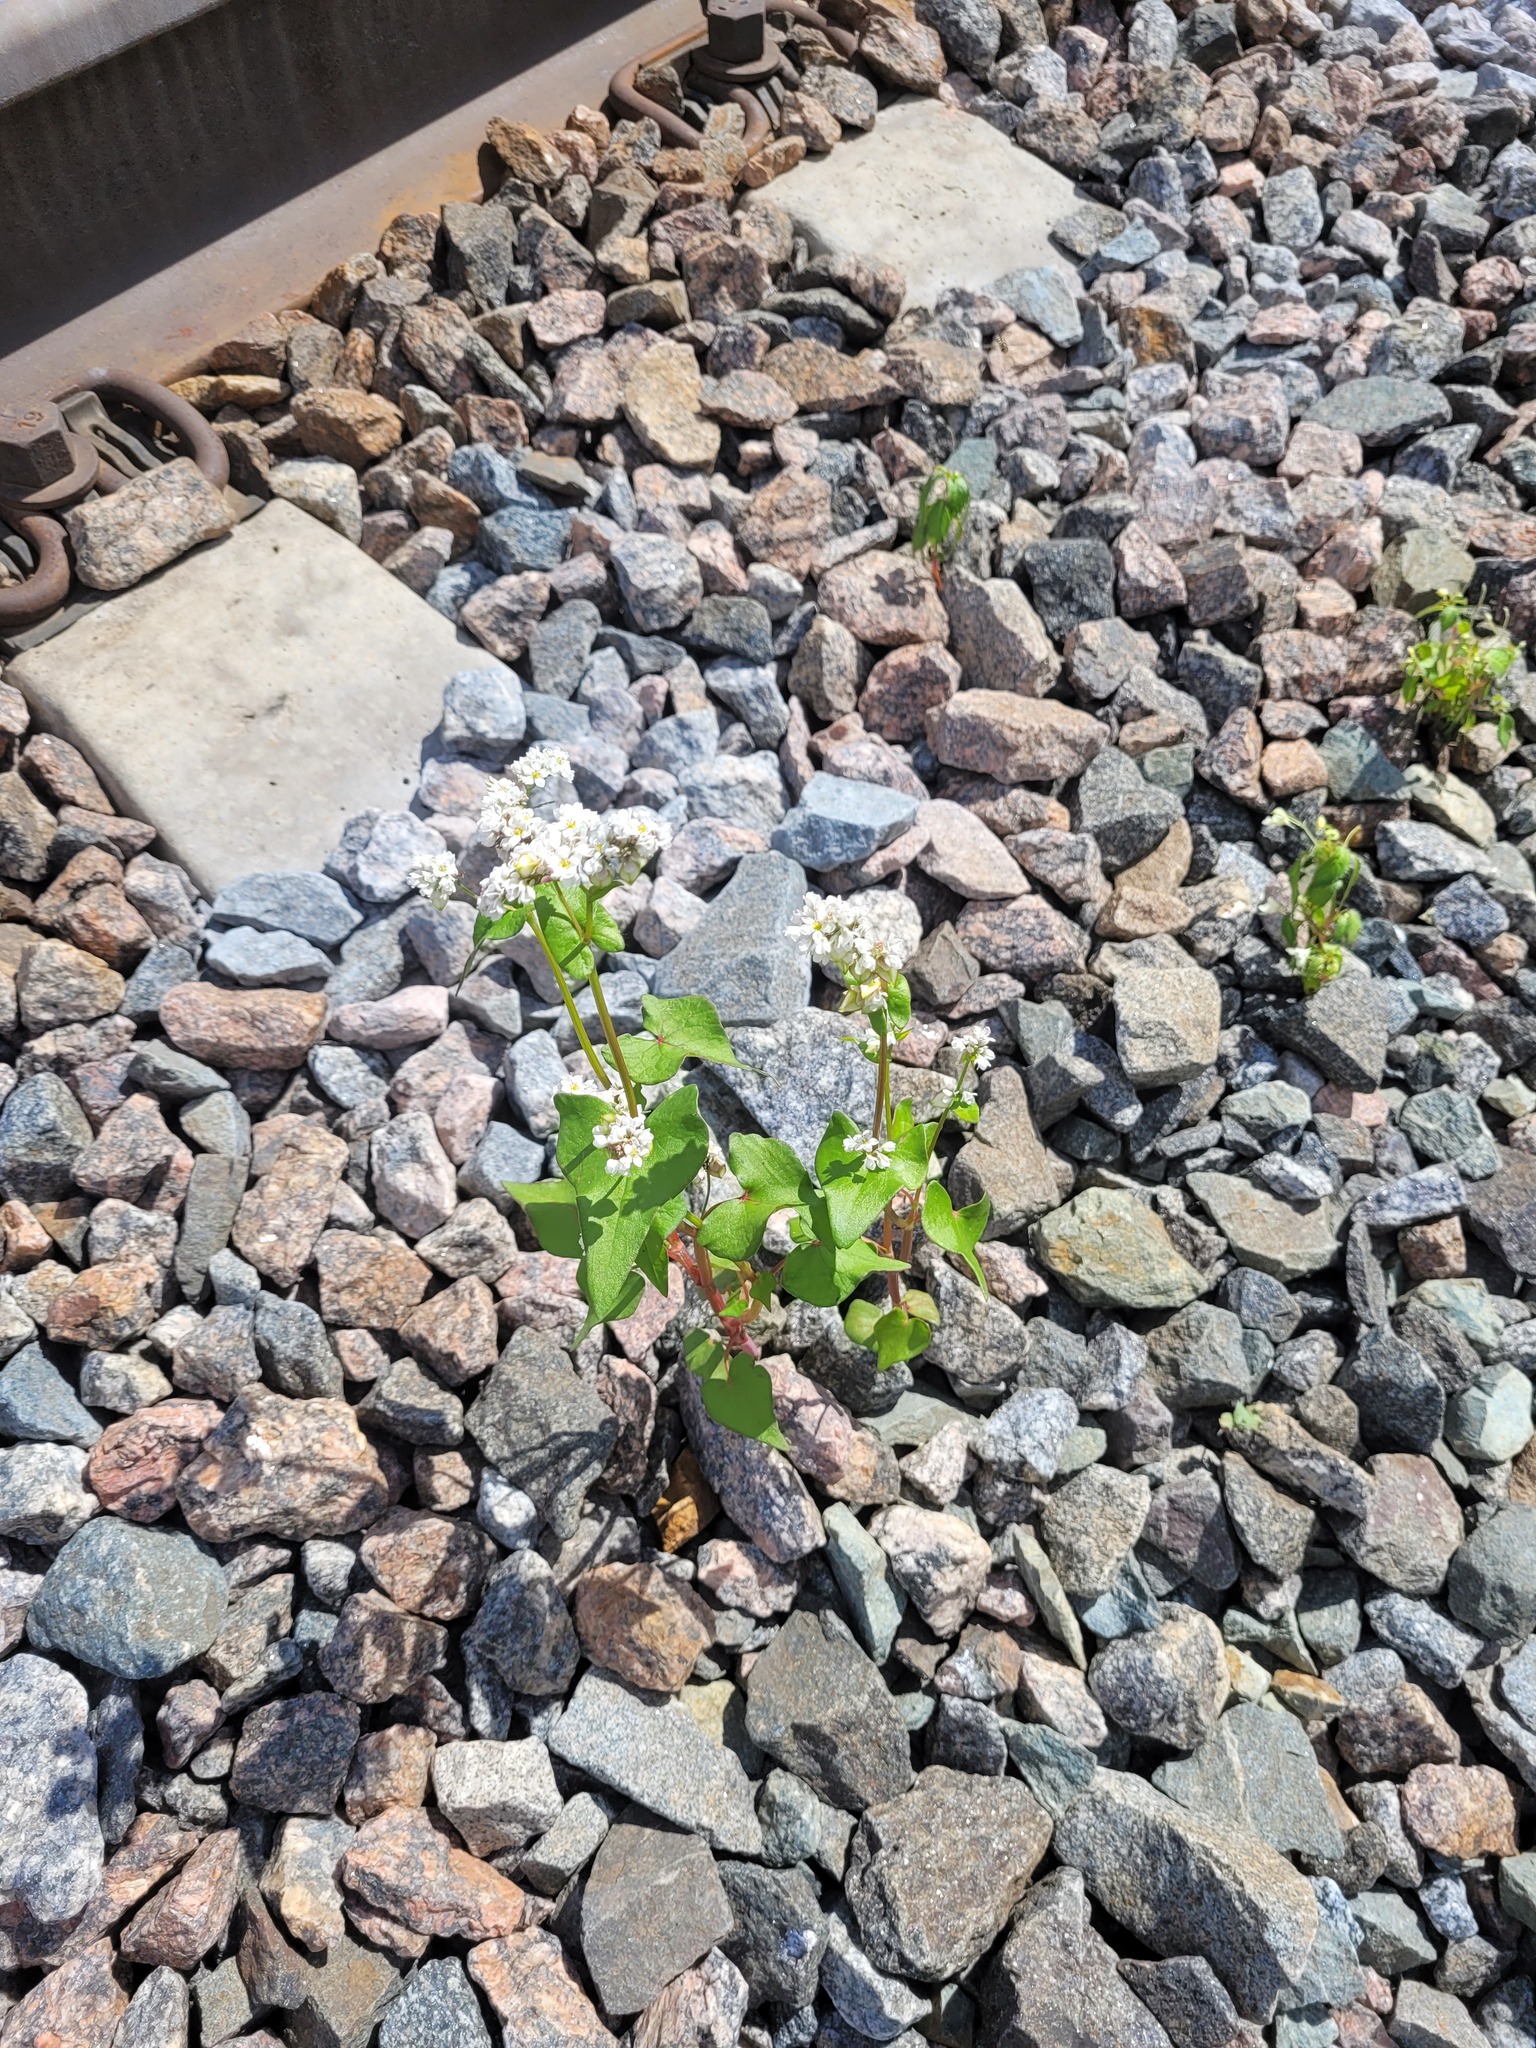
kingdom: Plantae
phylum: Tracheophyta
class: Magnoliopsida
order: Caryophyllales
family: Polygonaceae
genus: Fagopyrum
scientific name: Fagopyrum esculentum
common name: Buckwheat
